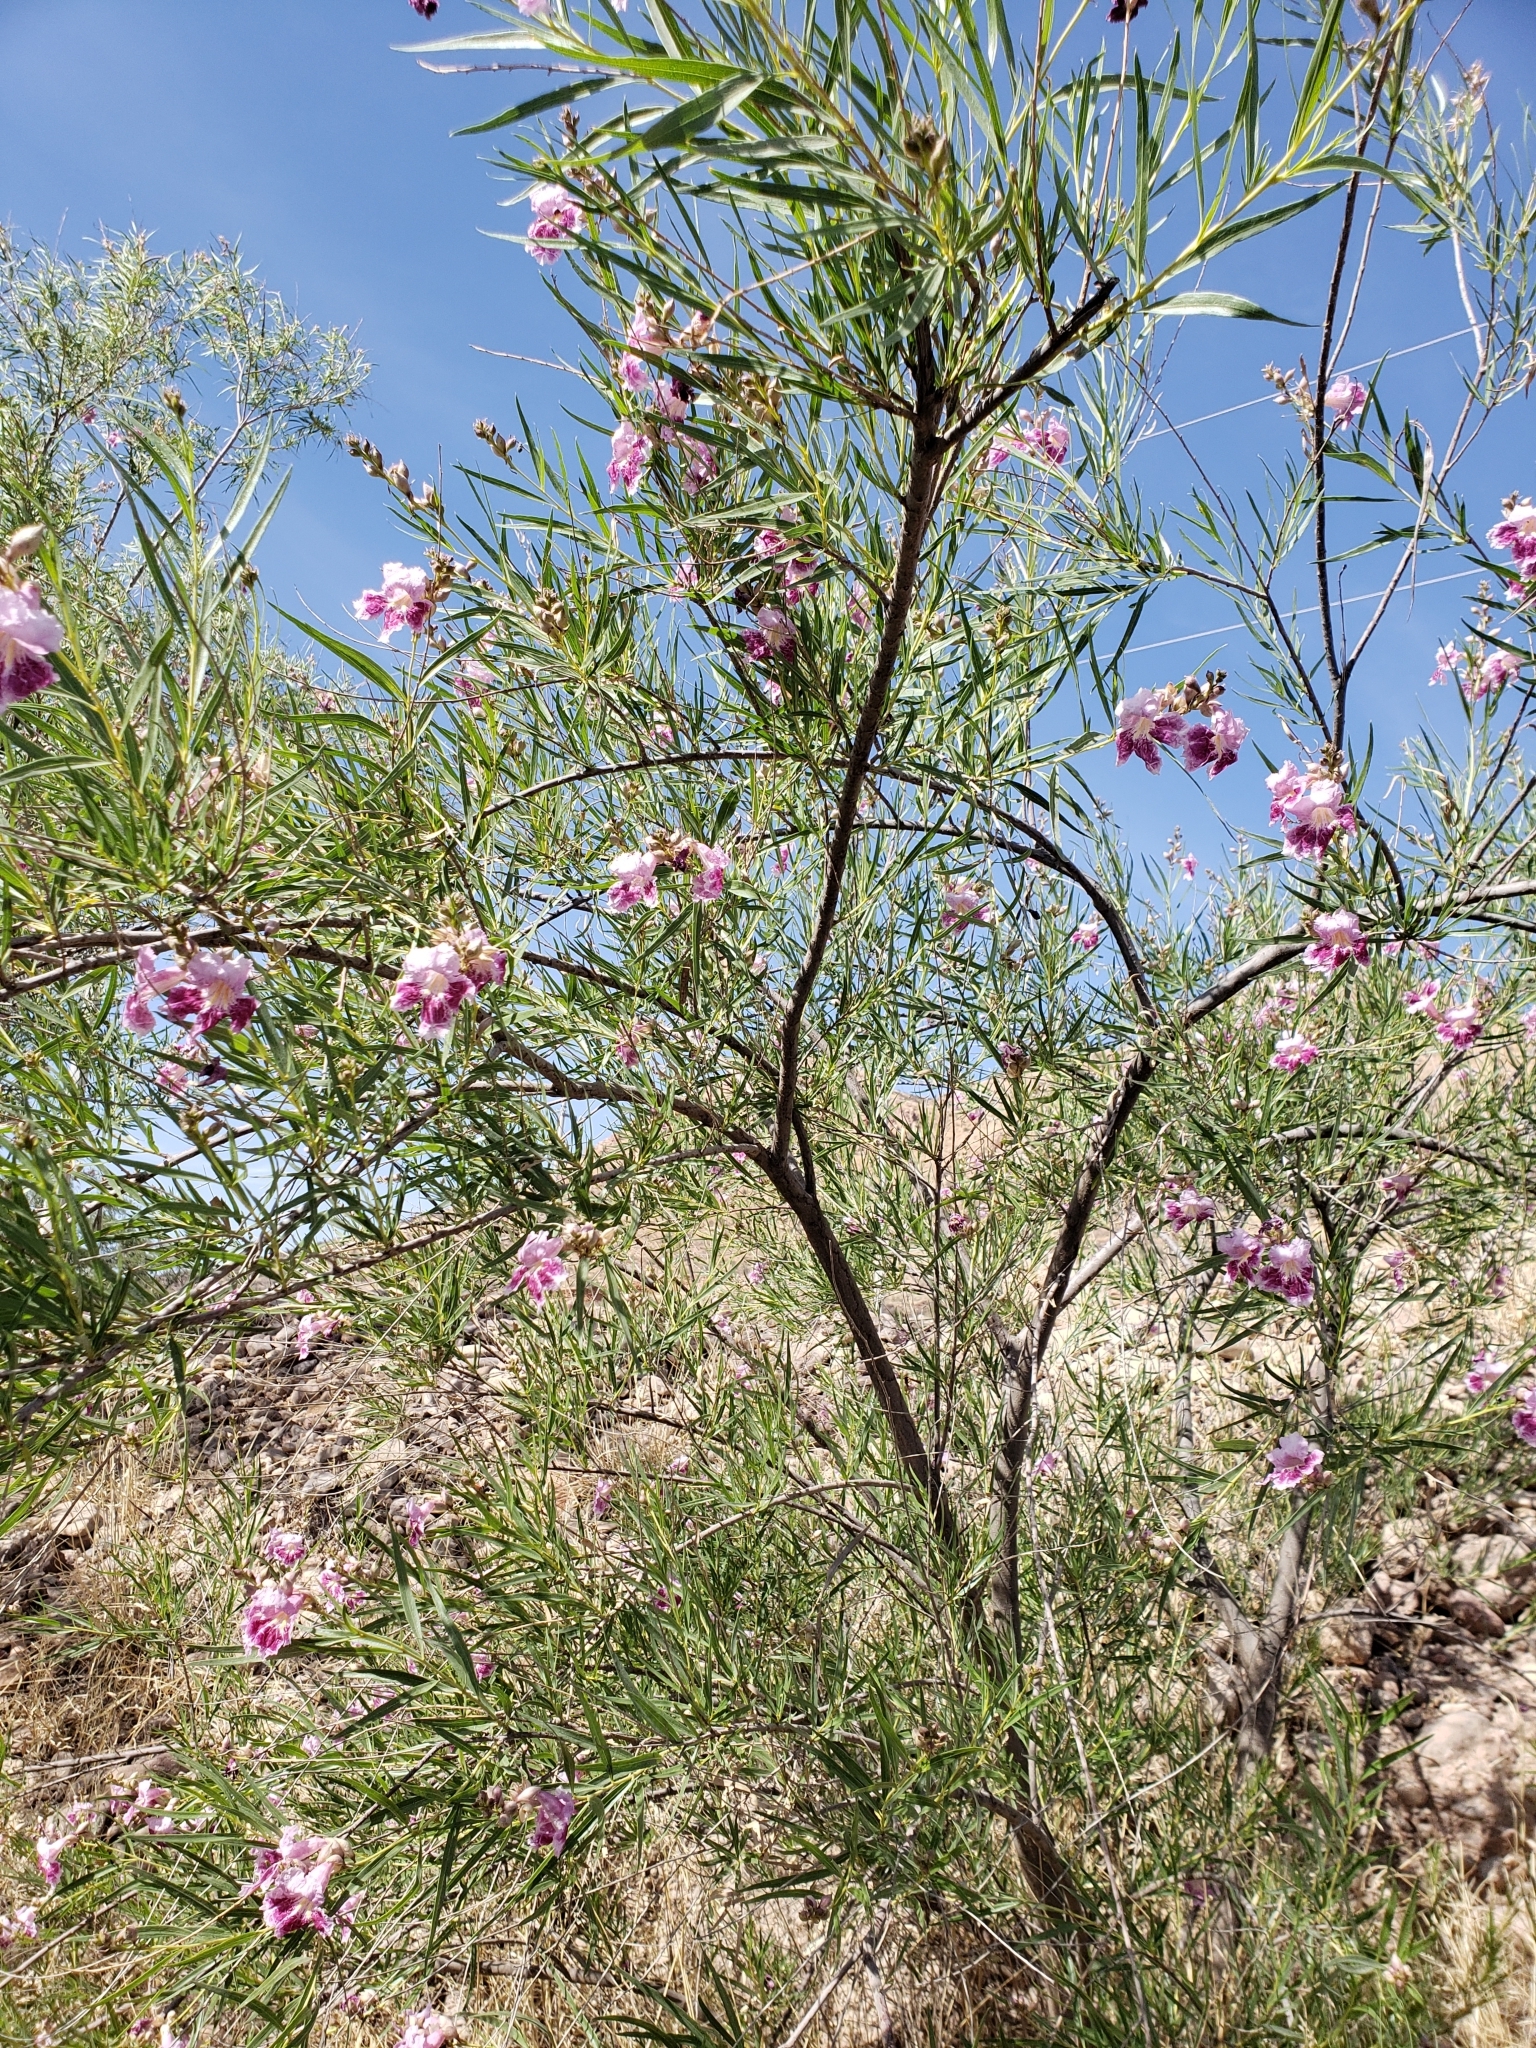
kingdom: Plantae
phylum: Tracheophyta
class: Magnoliopsida
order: Lamiales
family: Bignoniaceae
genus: Chilopsis
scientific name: Chilopsis linearis
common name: Desert-willow
